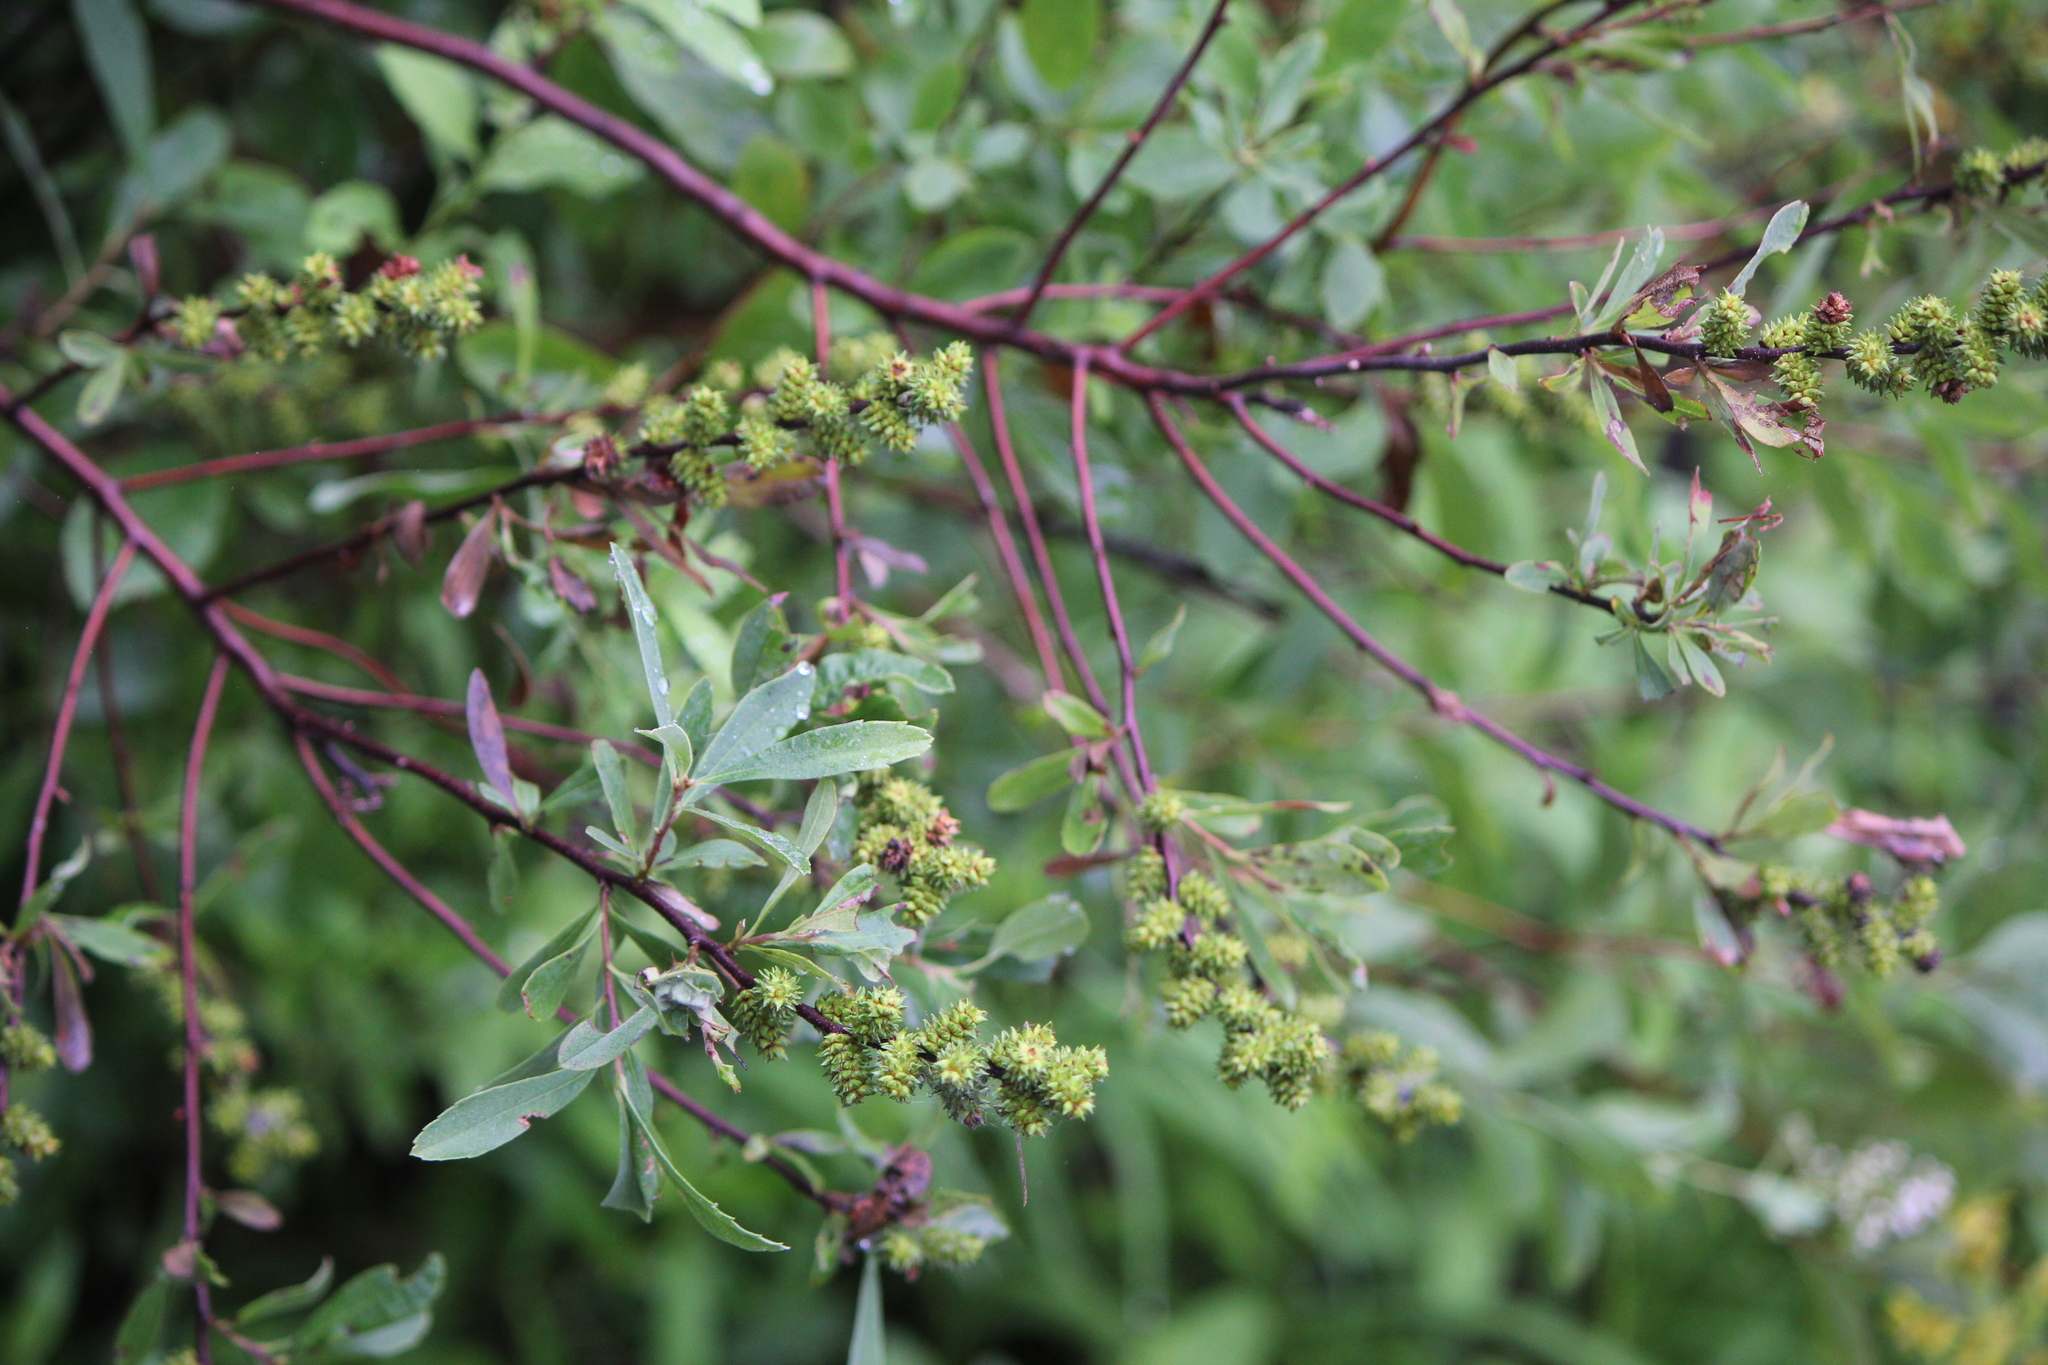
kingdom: Plantae
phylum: Tracheophyta
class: Magnoliopsida
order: Fagales
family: Myricaceae
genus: Myrica
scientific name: Myrica gale
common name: Sweet gale
